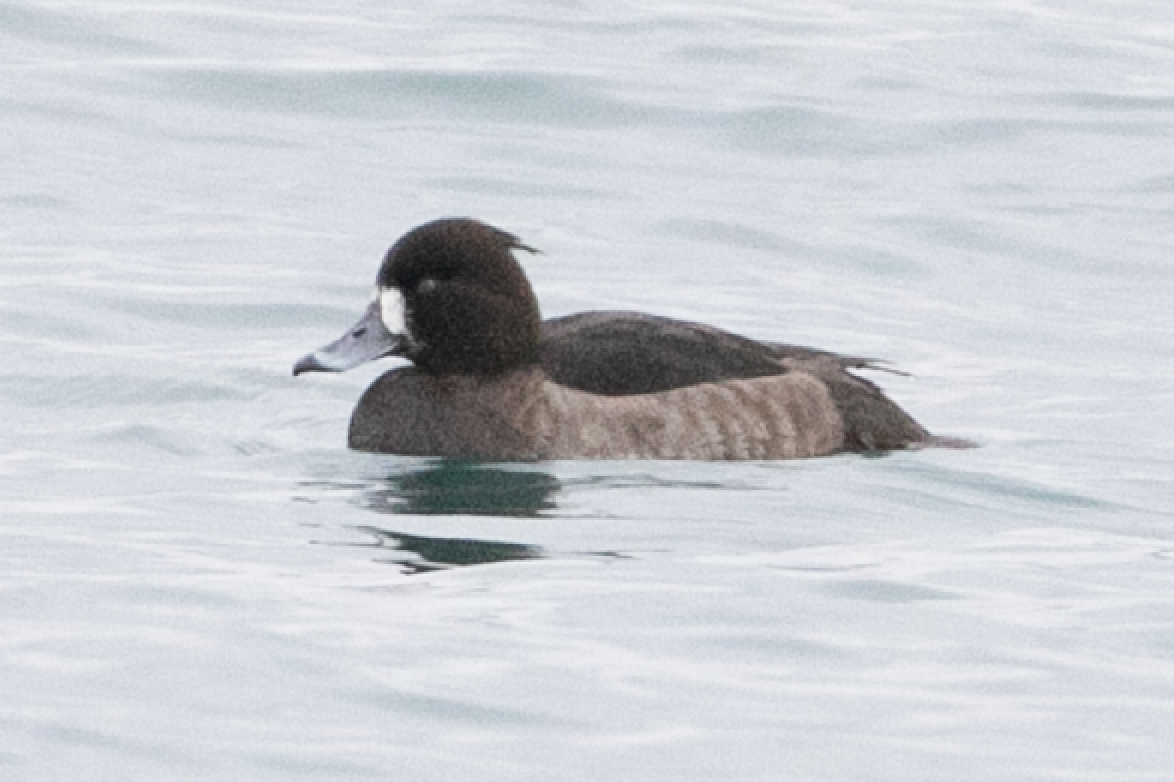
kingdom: Animalia
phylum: Chordata
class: Aves
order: Anseriformes
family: Anatidae
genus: Aythya
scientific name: Aythya fuligula
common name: Tufted duck
